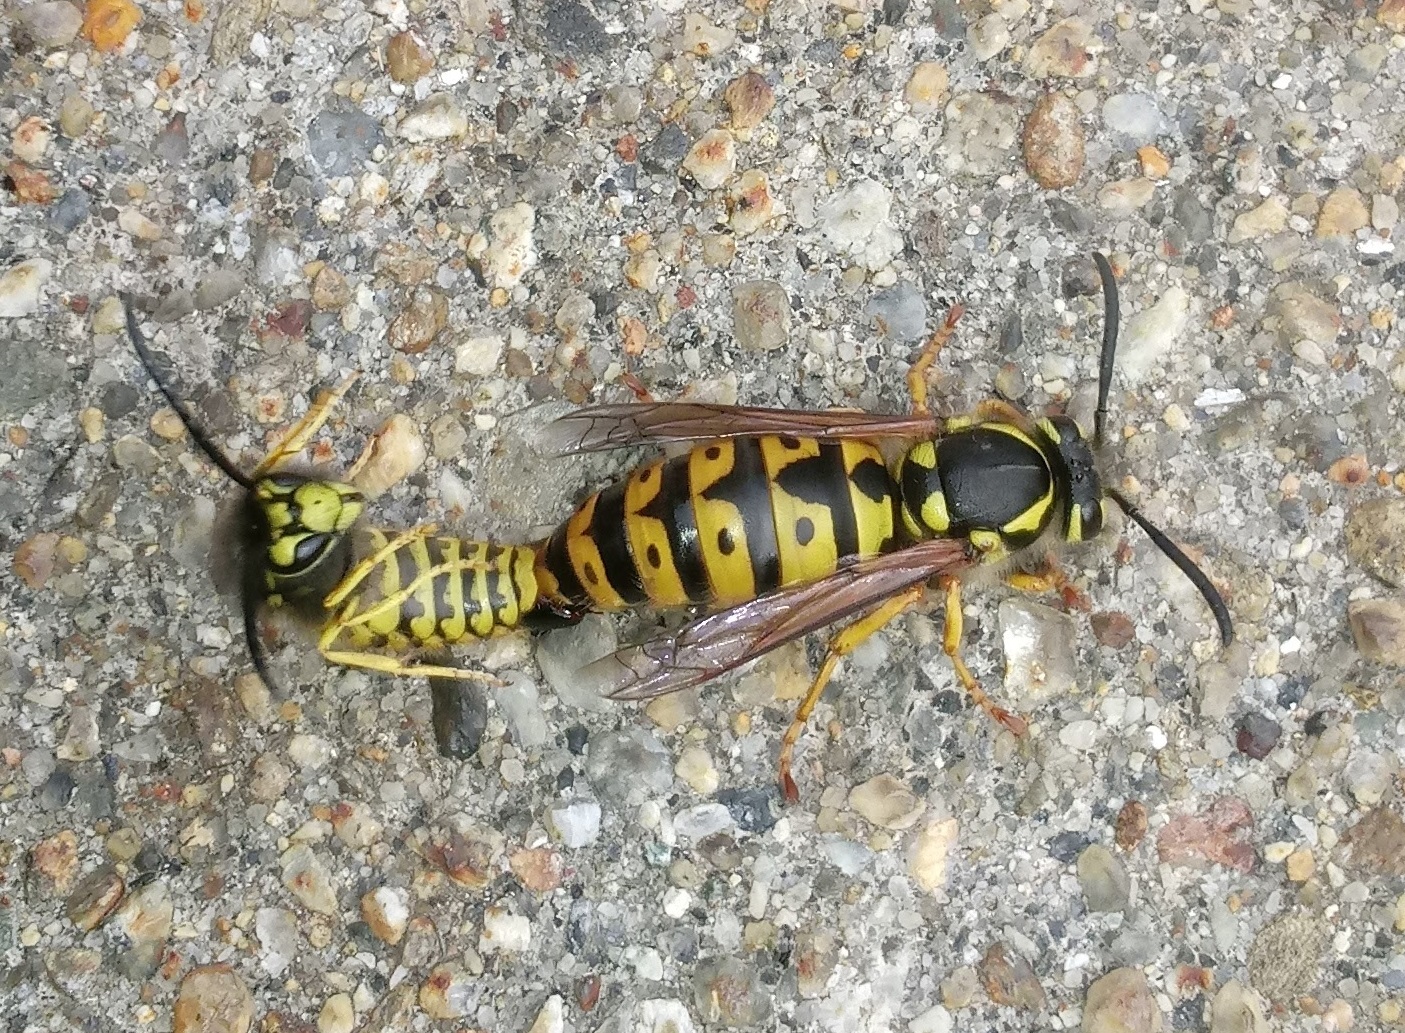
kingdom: Animalia
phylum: Arthropoda
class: Insecta
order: Hymenoptera
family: Vespidae
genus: Vespula
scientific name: Vespula germanica
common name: German wasp
